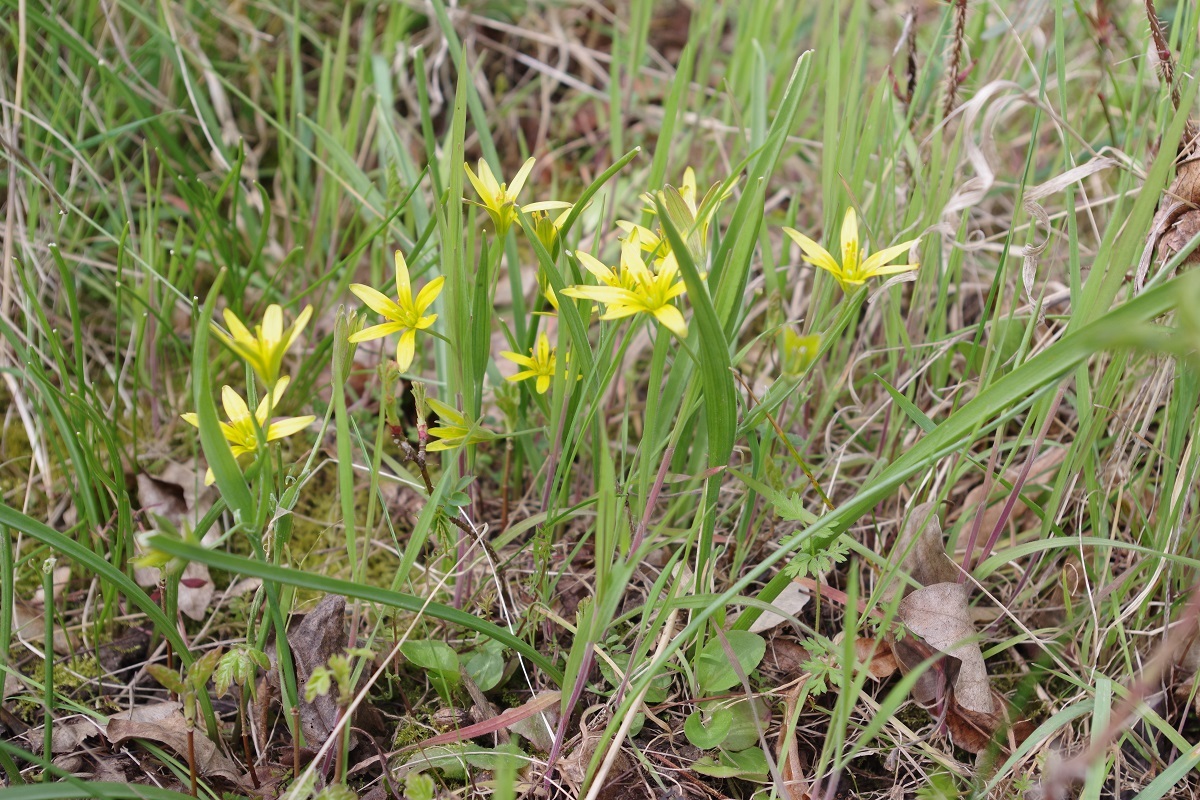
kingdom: Plantae
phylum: Tracheophyta
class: Liliopsida
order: Liliales
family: Liliaceae
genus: Gagea
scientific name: Gagea pratensis
